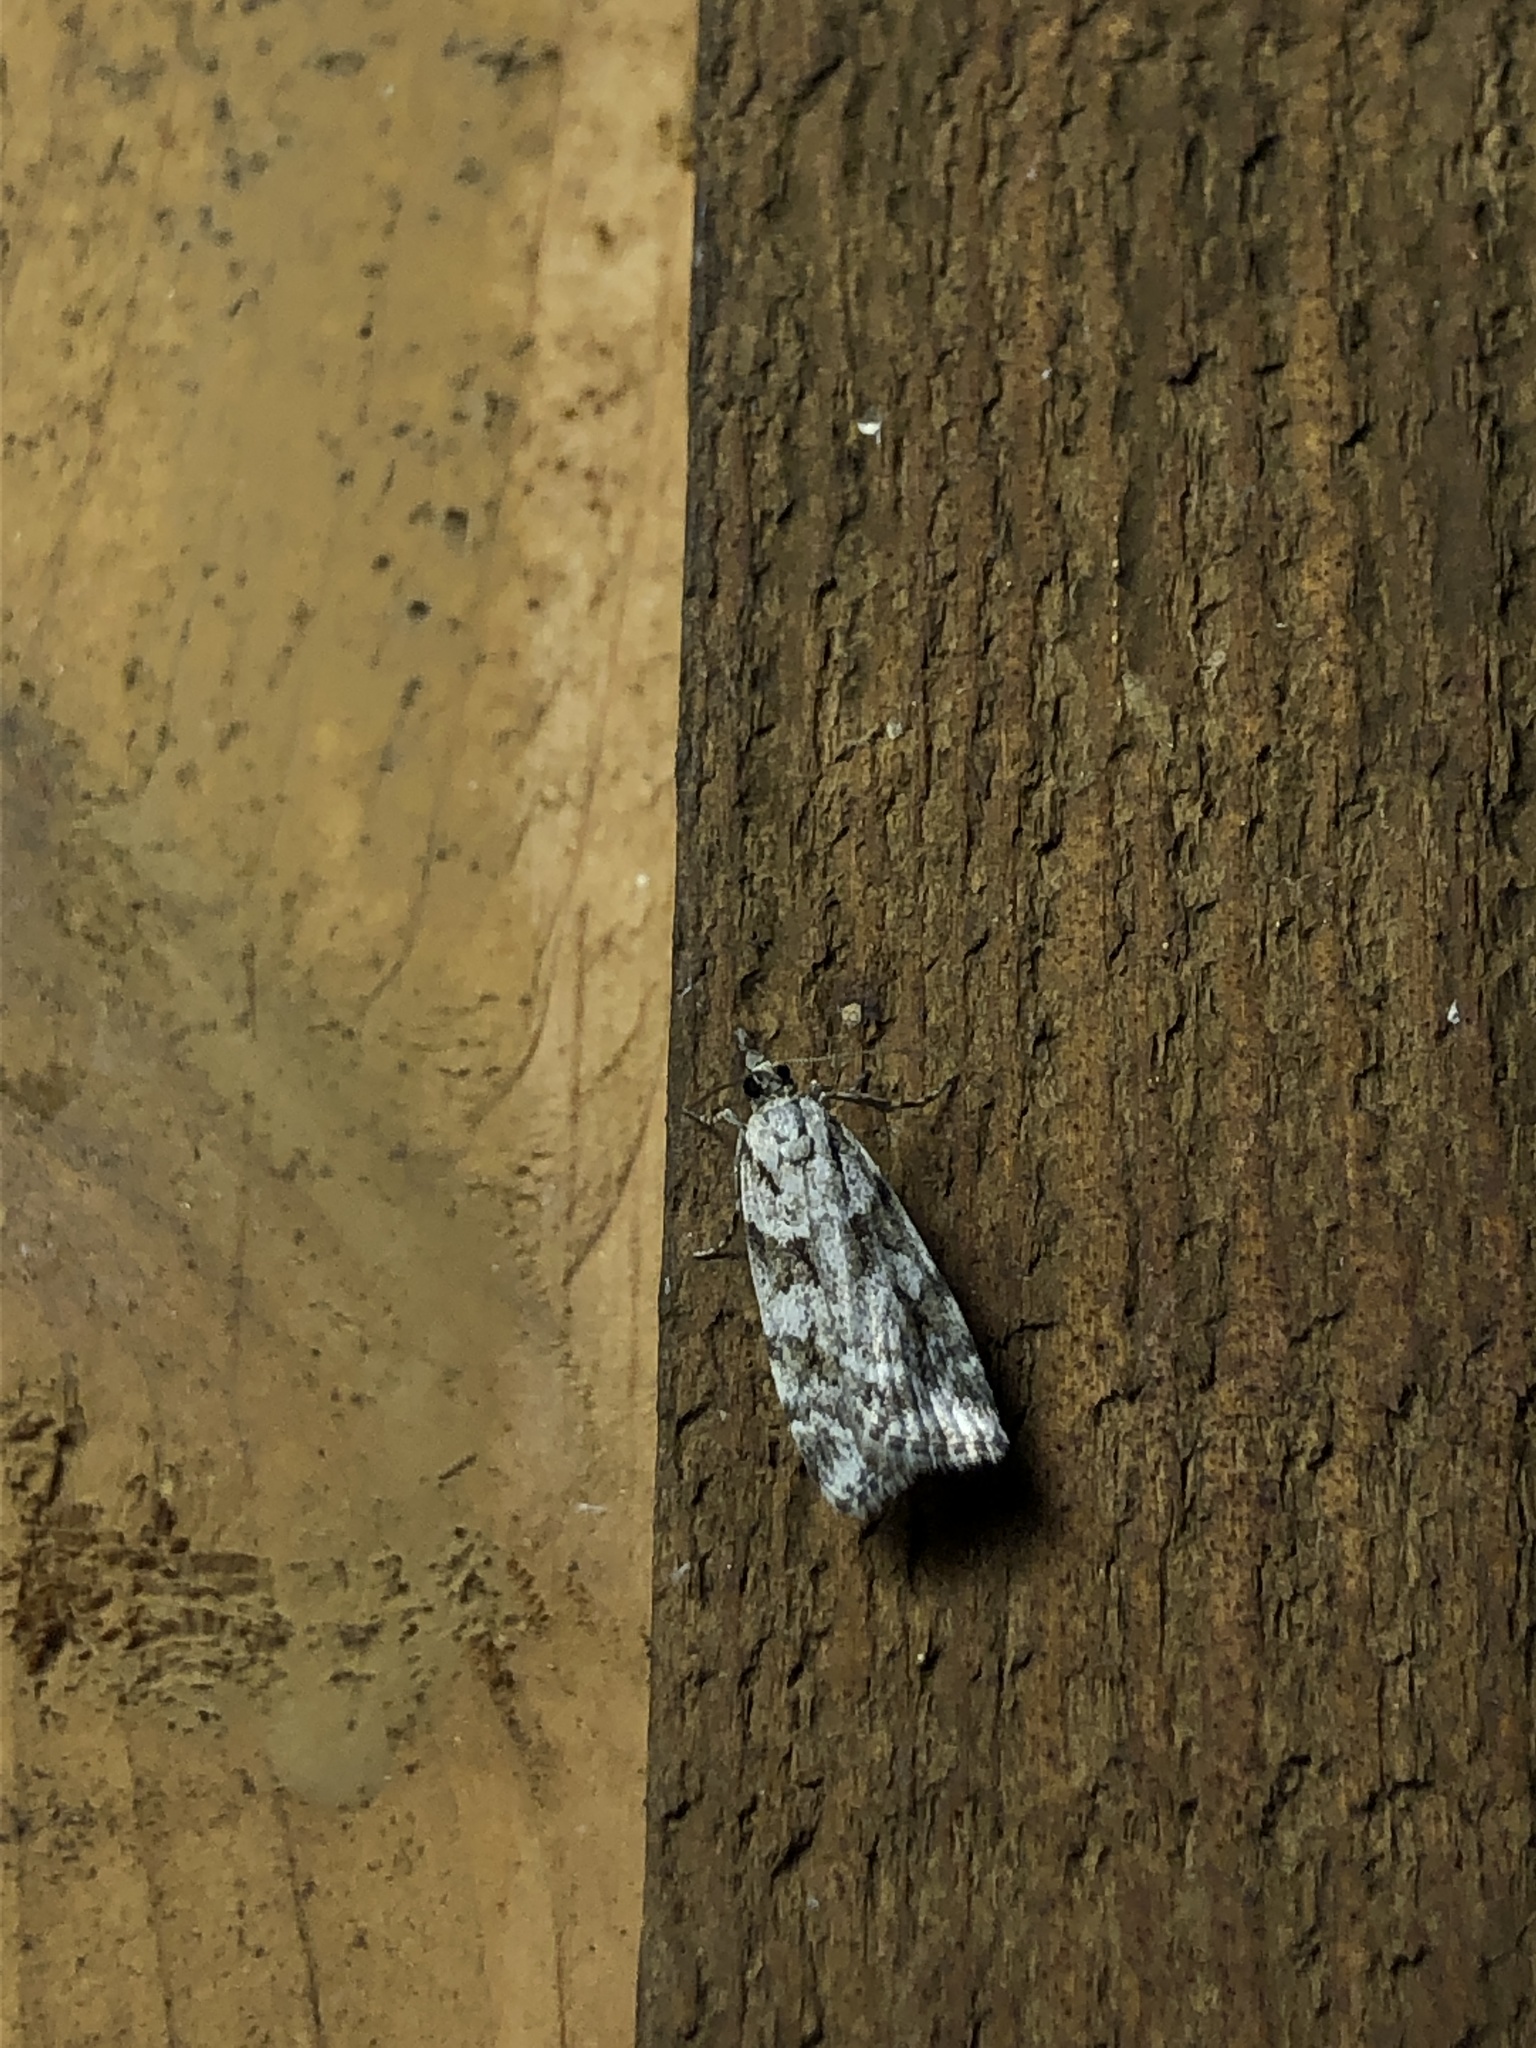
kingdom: Animalia
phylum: Arthropoda
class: Insecta
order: Lepidoptera
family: Crambidae
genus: Scoparia
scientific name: Scoparia biplagialis
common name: Double-striped scoparia moth
